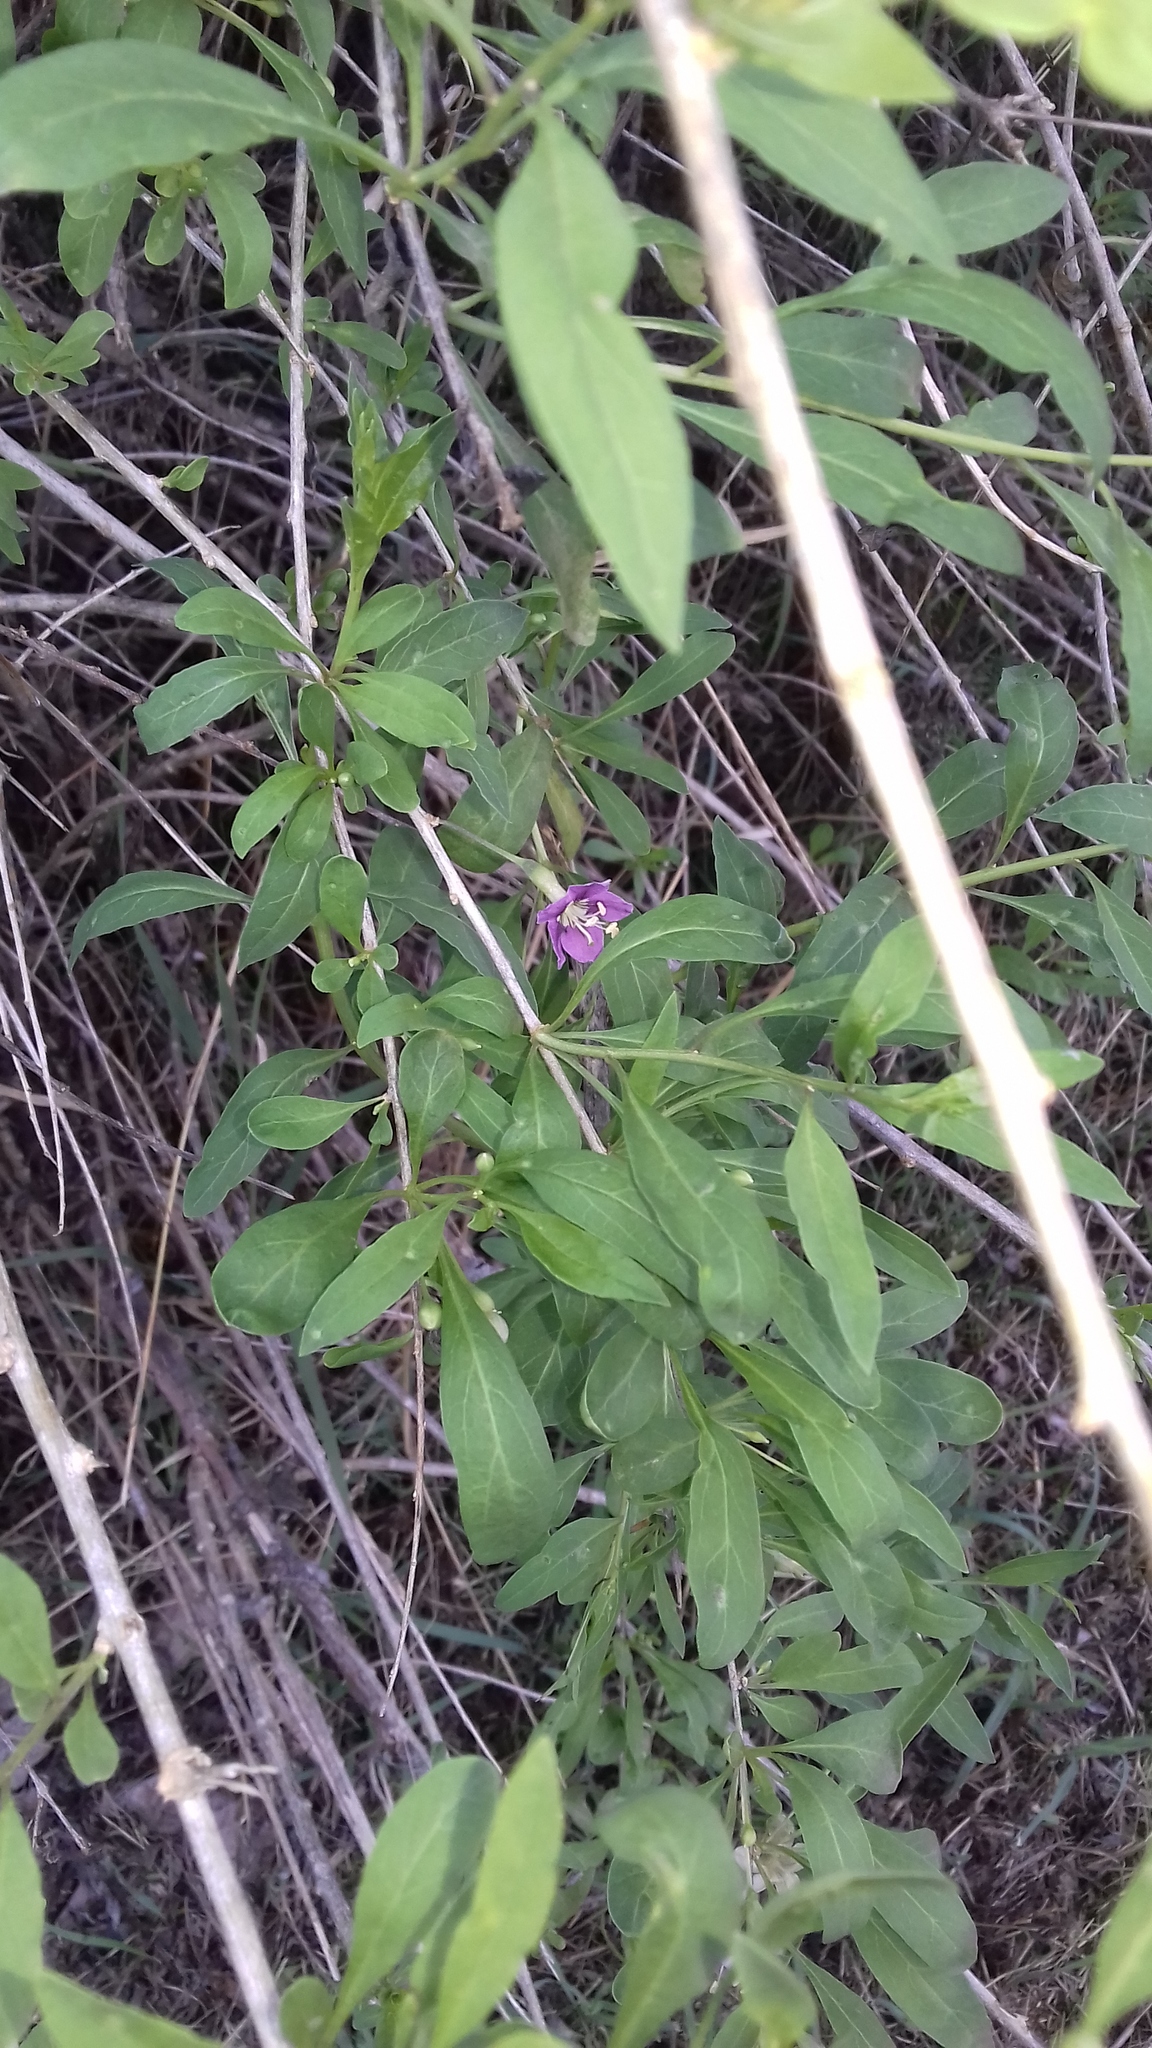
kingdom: Plantae
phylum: Tracheophyta
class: Magnoliopsida
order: Solanales
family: Solanaceae
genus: Lycium
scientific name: Lycium barbarum
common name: Duke of argyll's teaplant
